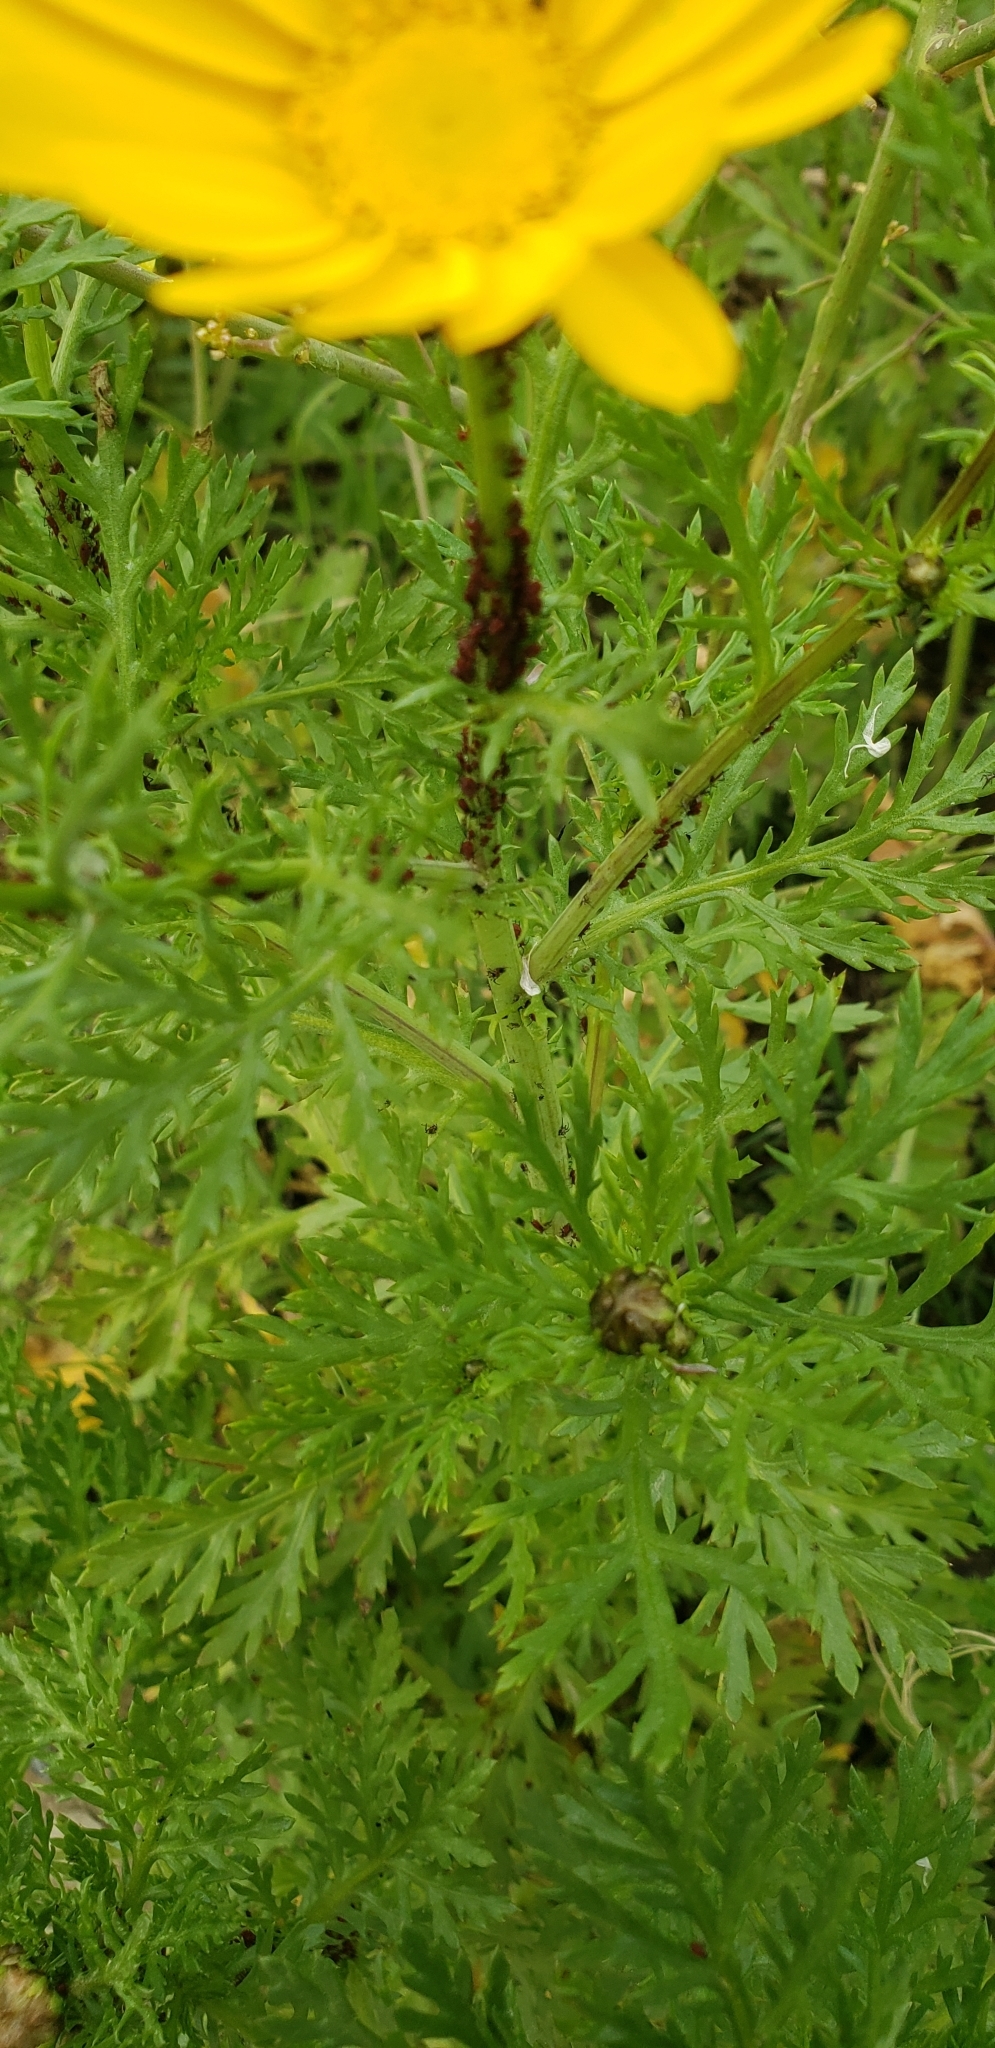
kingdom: Plantae
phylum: Tracheophyta
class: Magnoliopsida
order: Asterales
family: Asteraceae
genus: Glebionis
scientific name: Glebionis coronaria
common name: Crowndaisy
